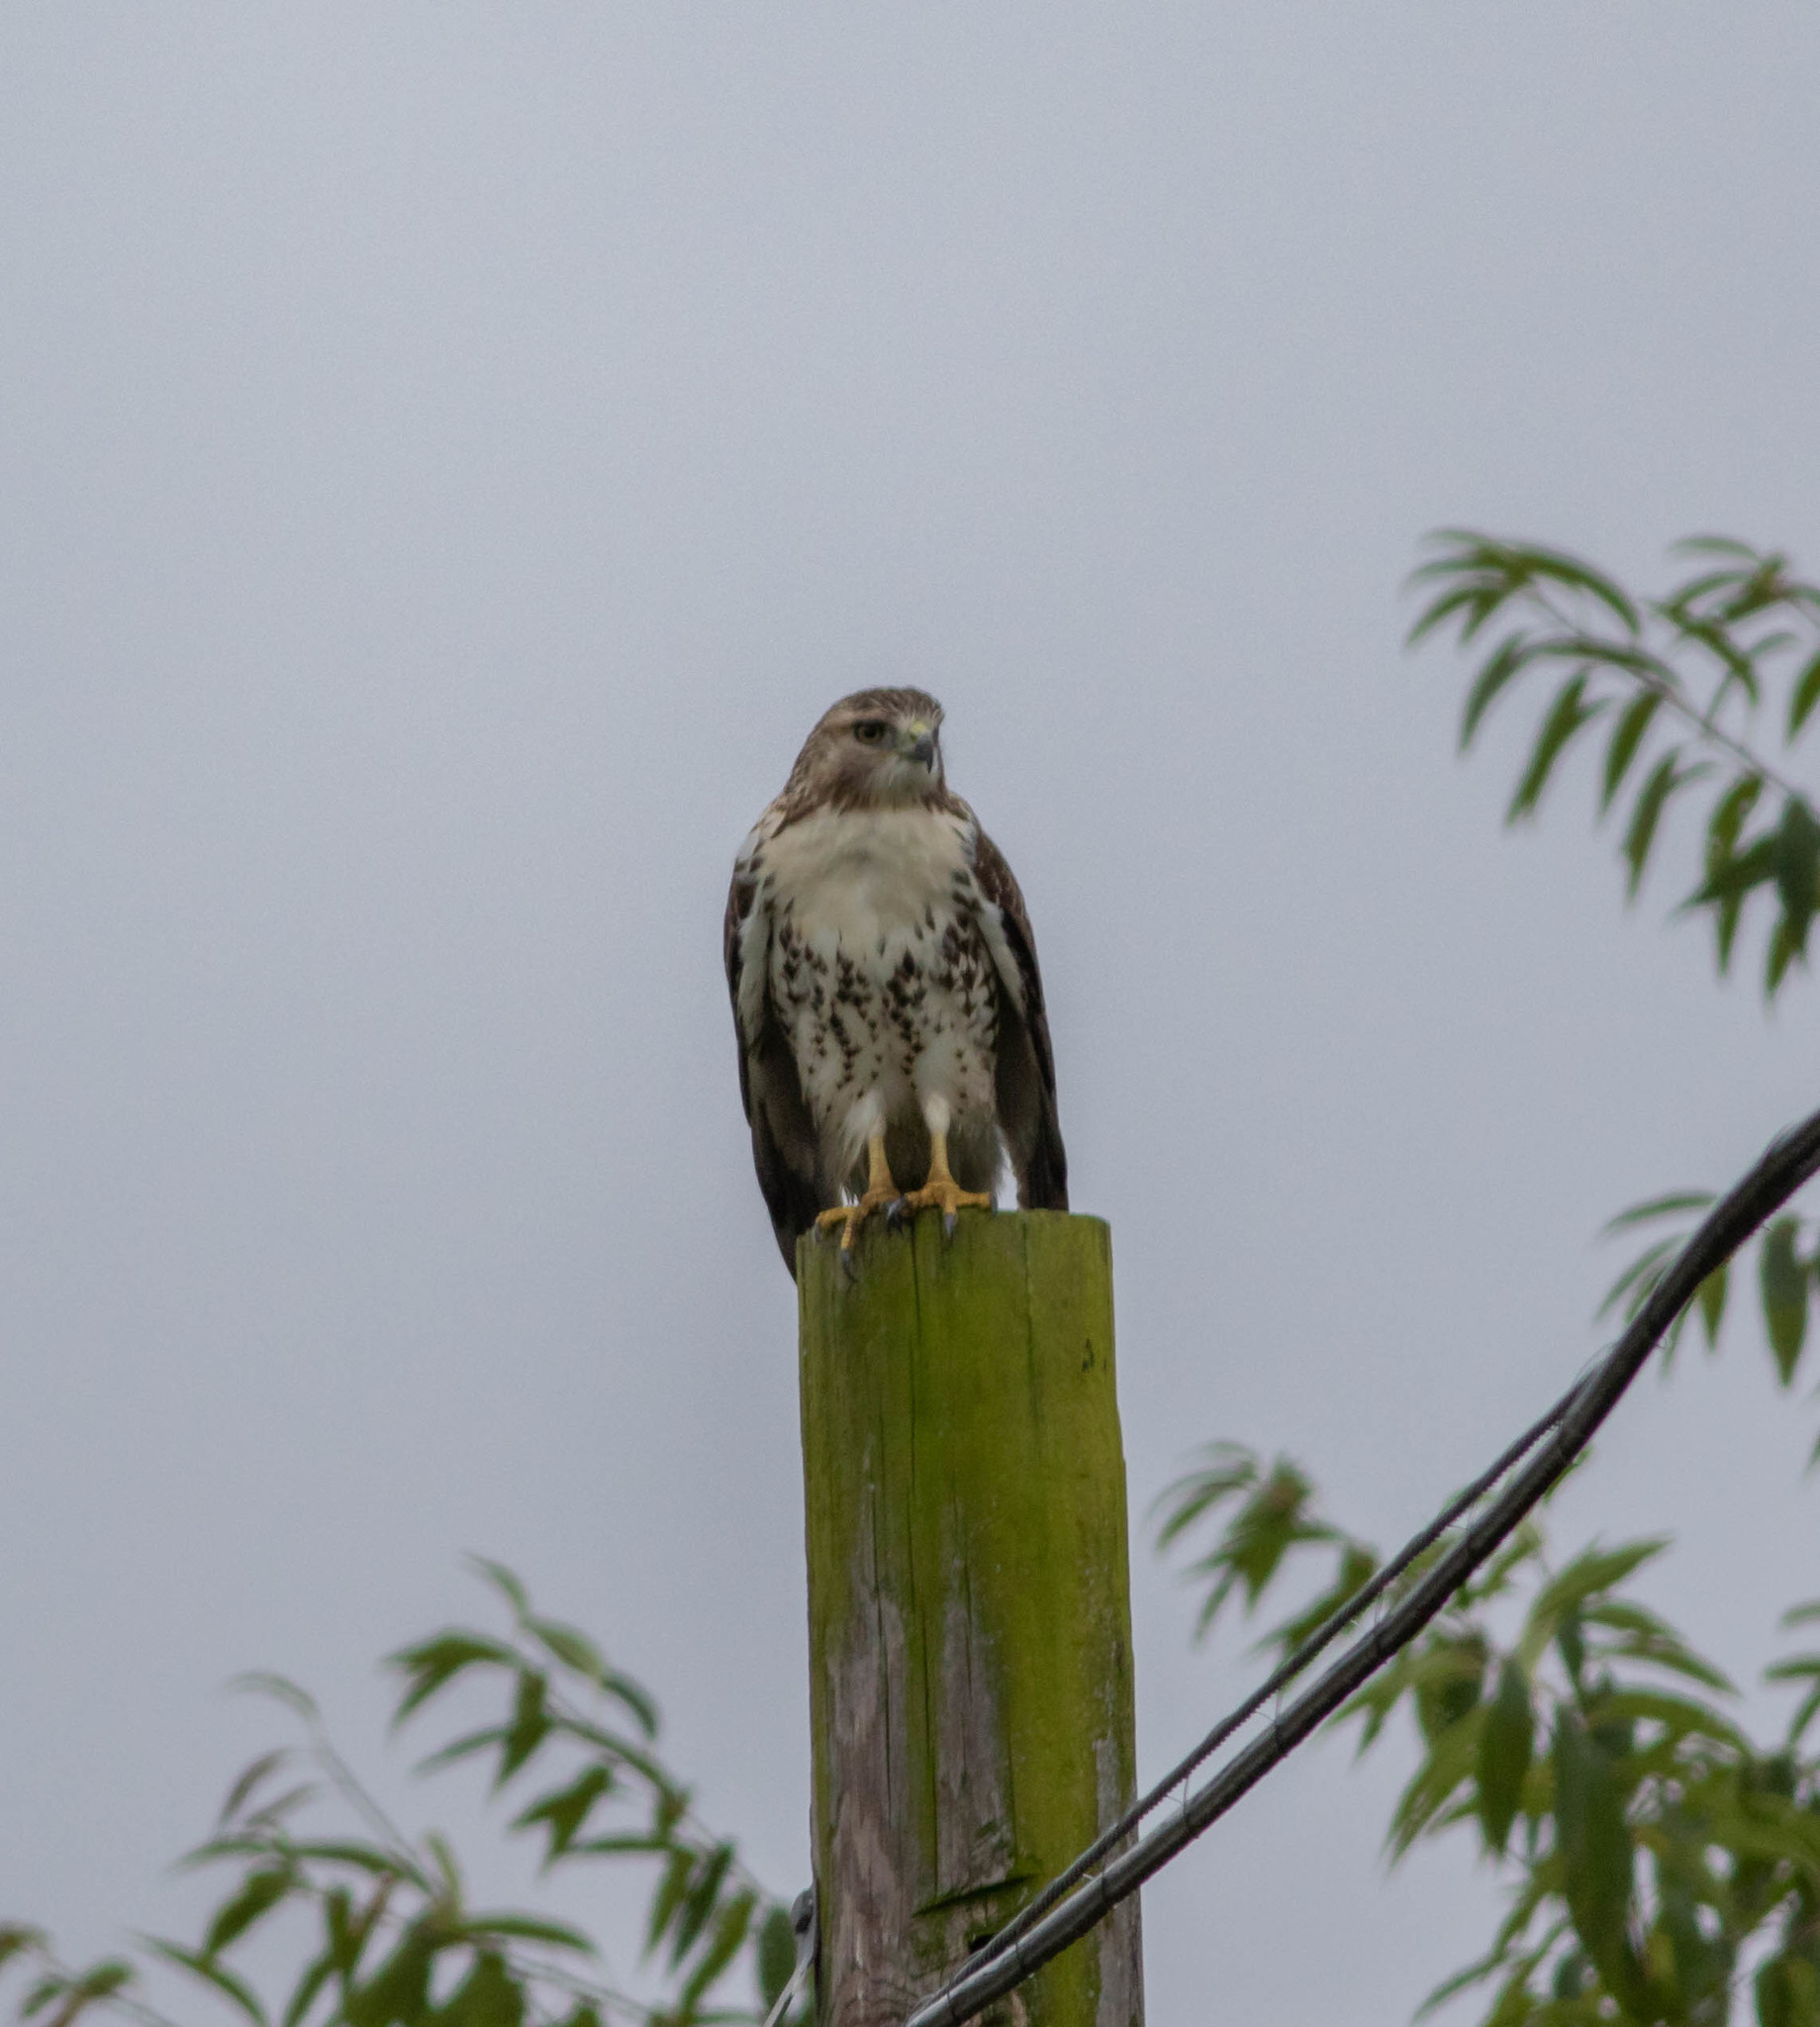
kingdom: Animalia
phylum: Chordata
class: Aves
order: Accipitriformes
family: Accipitridae
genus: Buteo
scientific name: Buteo jamaicensis
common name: Red-tailed hawk
